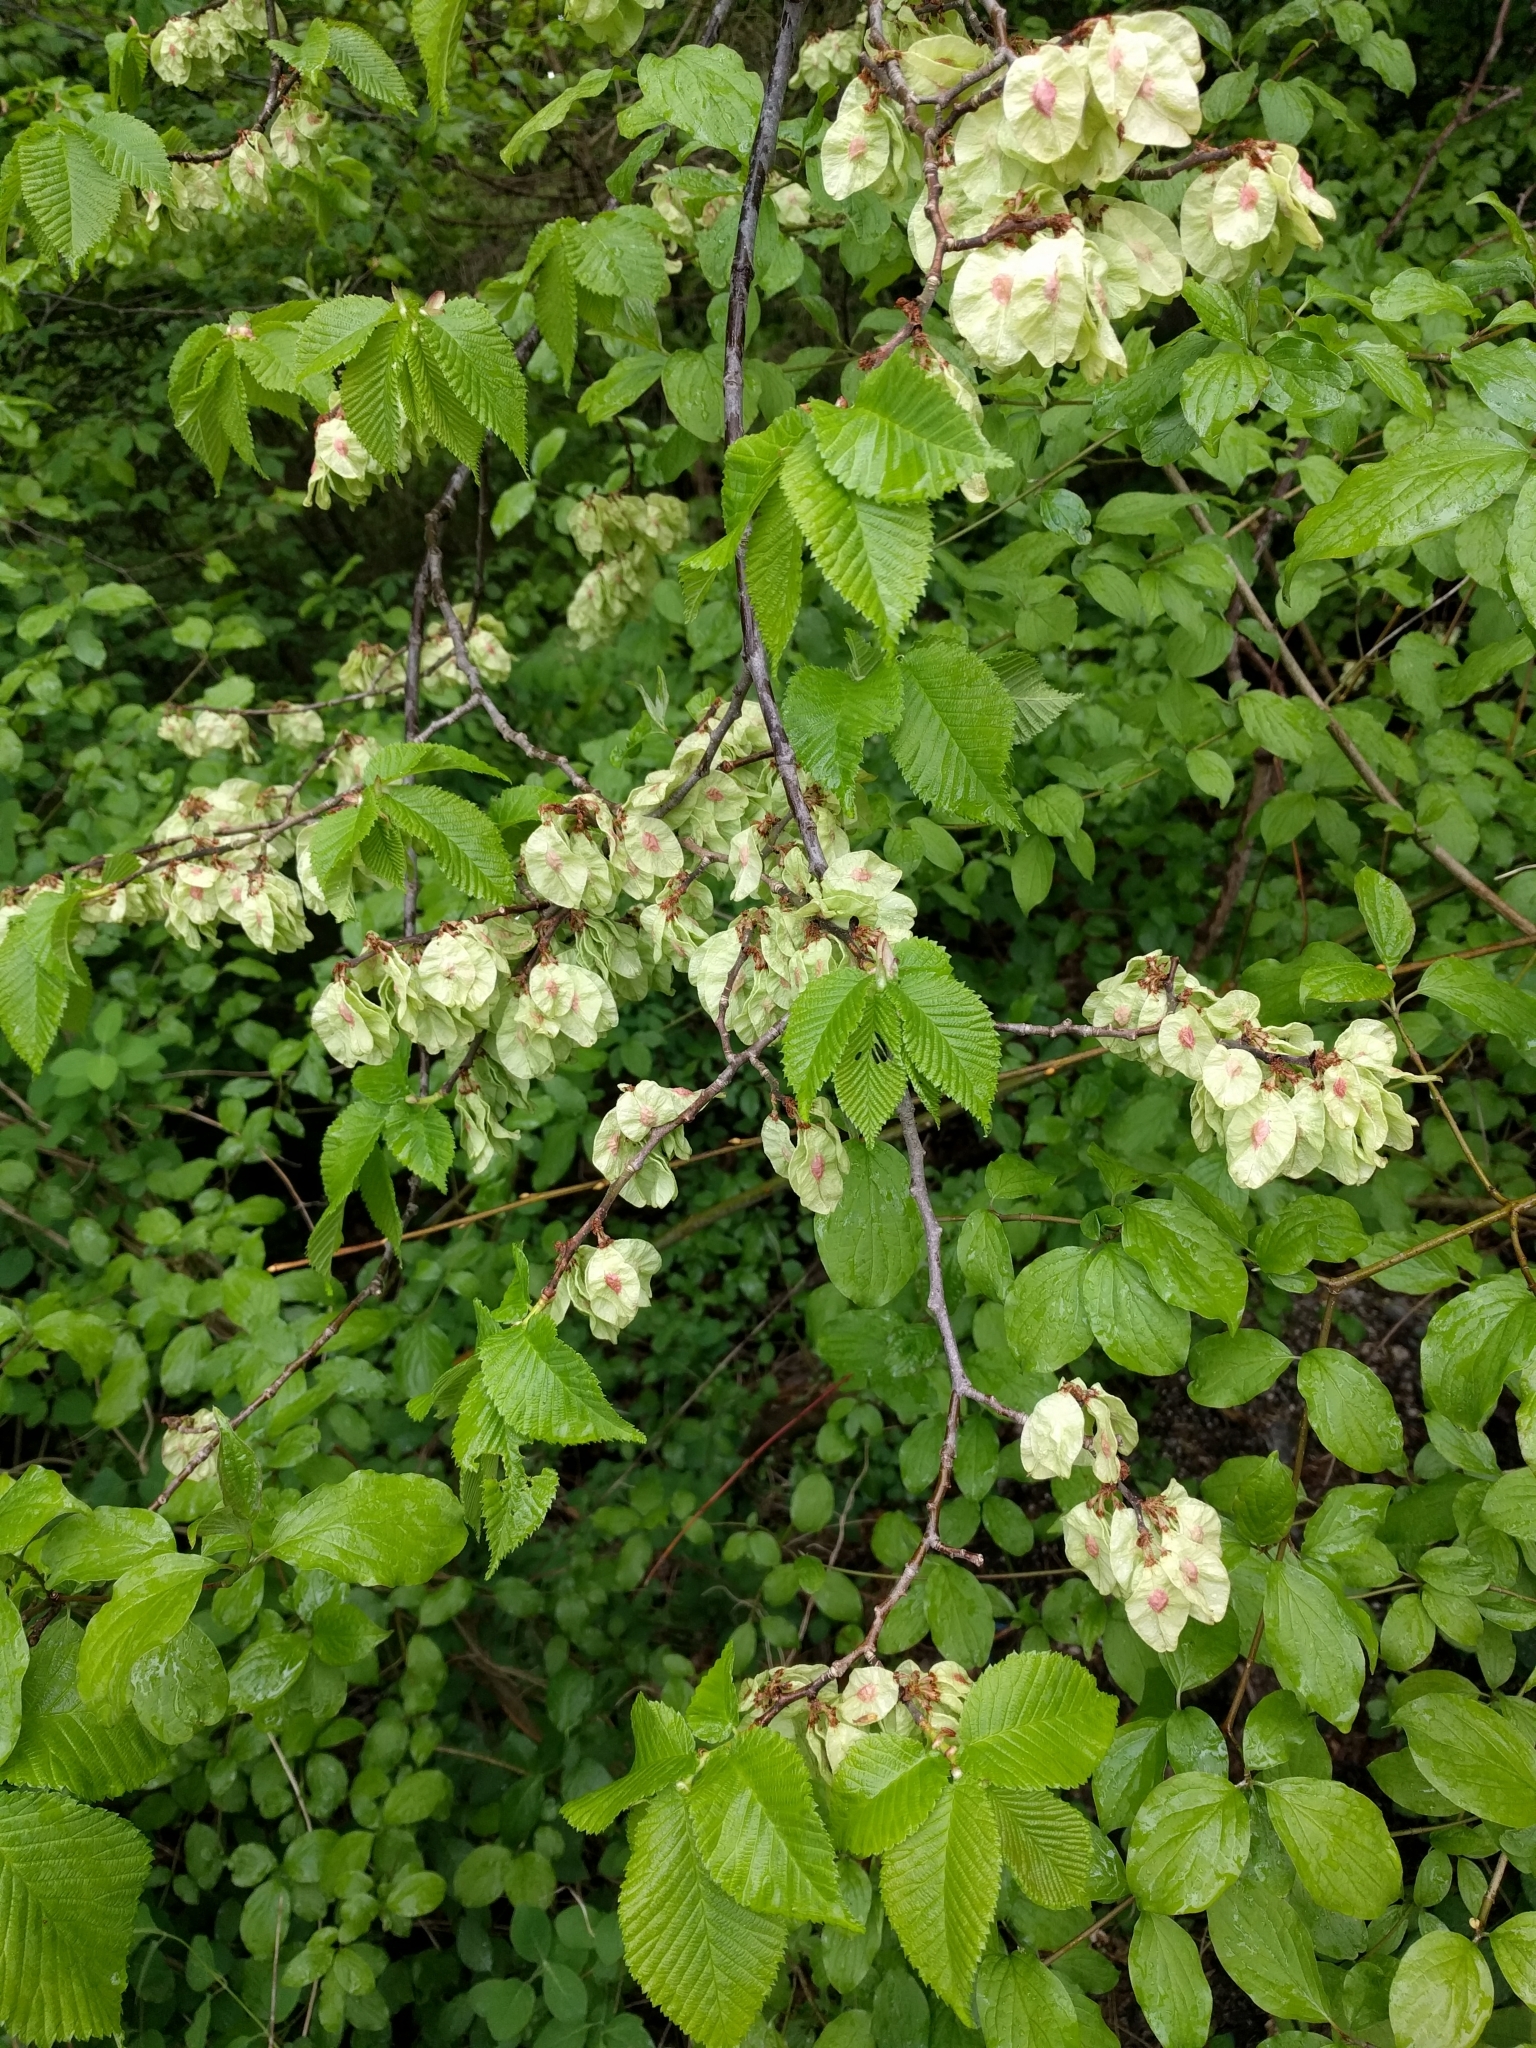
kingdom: Plantae
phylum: Tracheophyta
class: Magnoliopsida
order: Rosales
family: Ulmaceae
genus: Ulmus
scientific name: Ulmus glabra
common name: Wych elm
